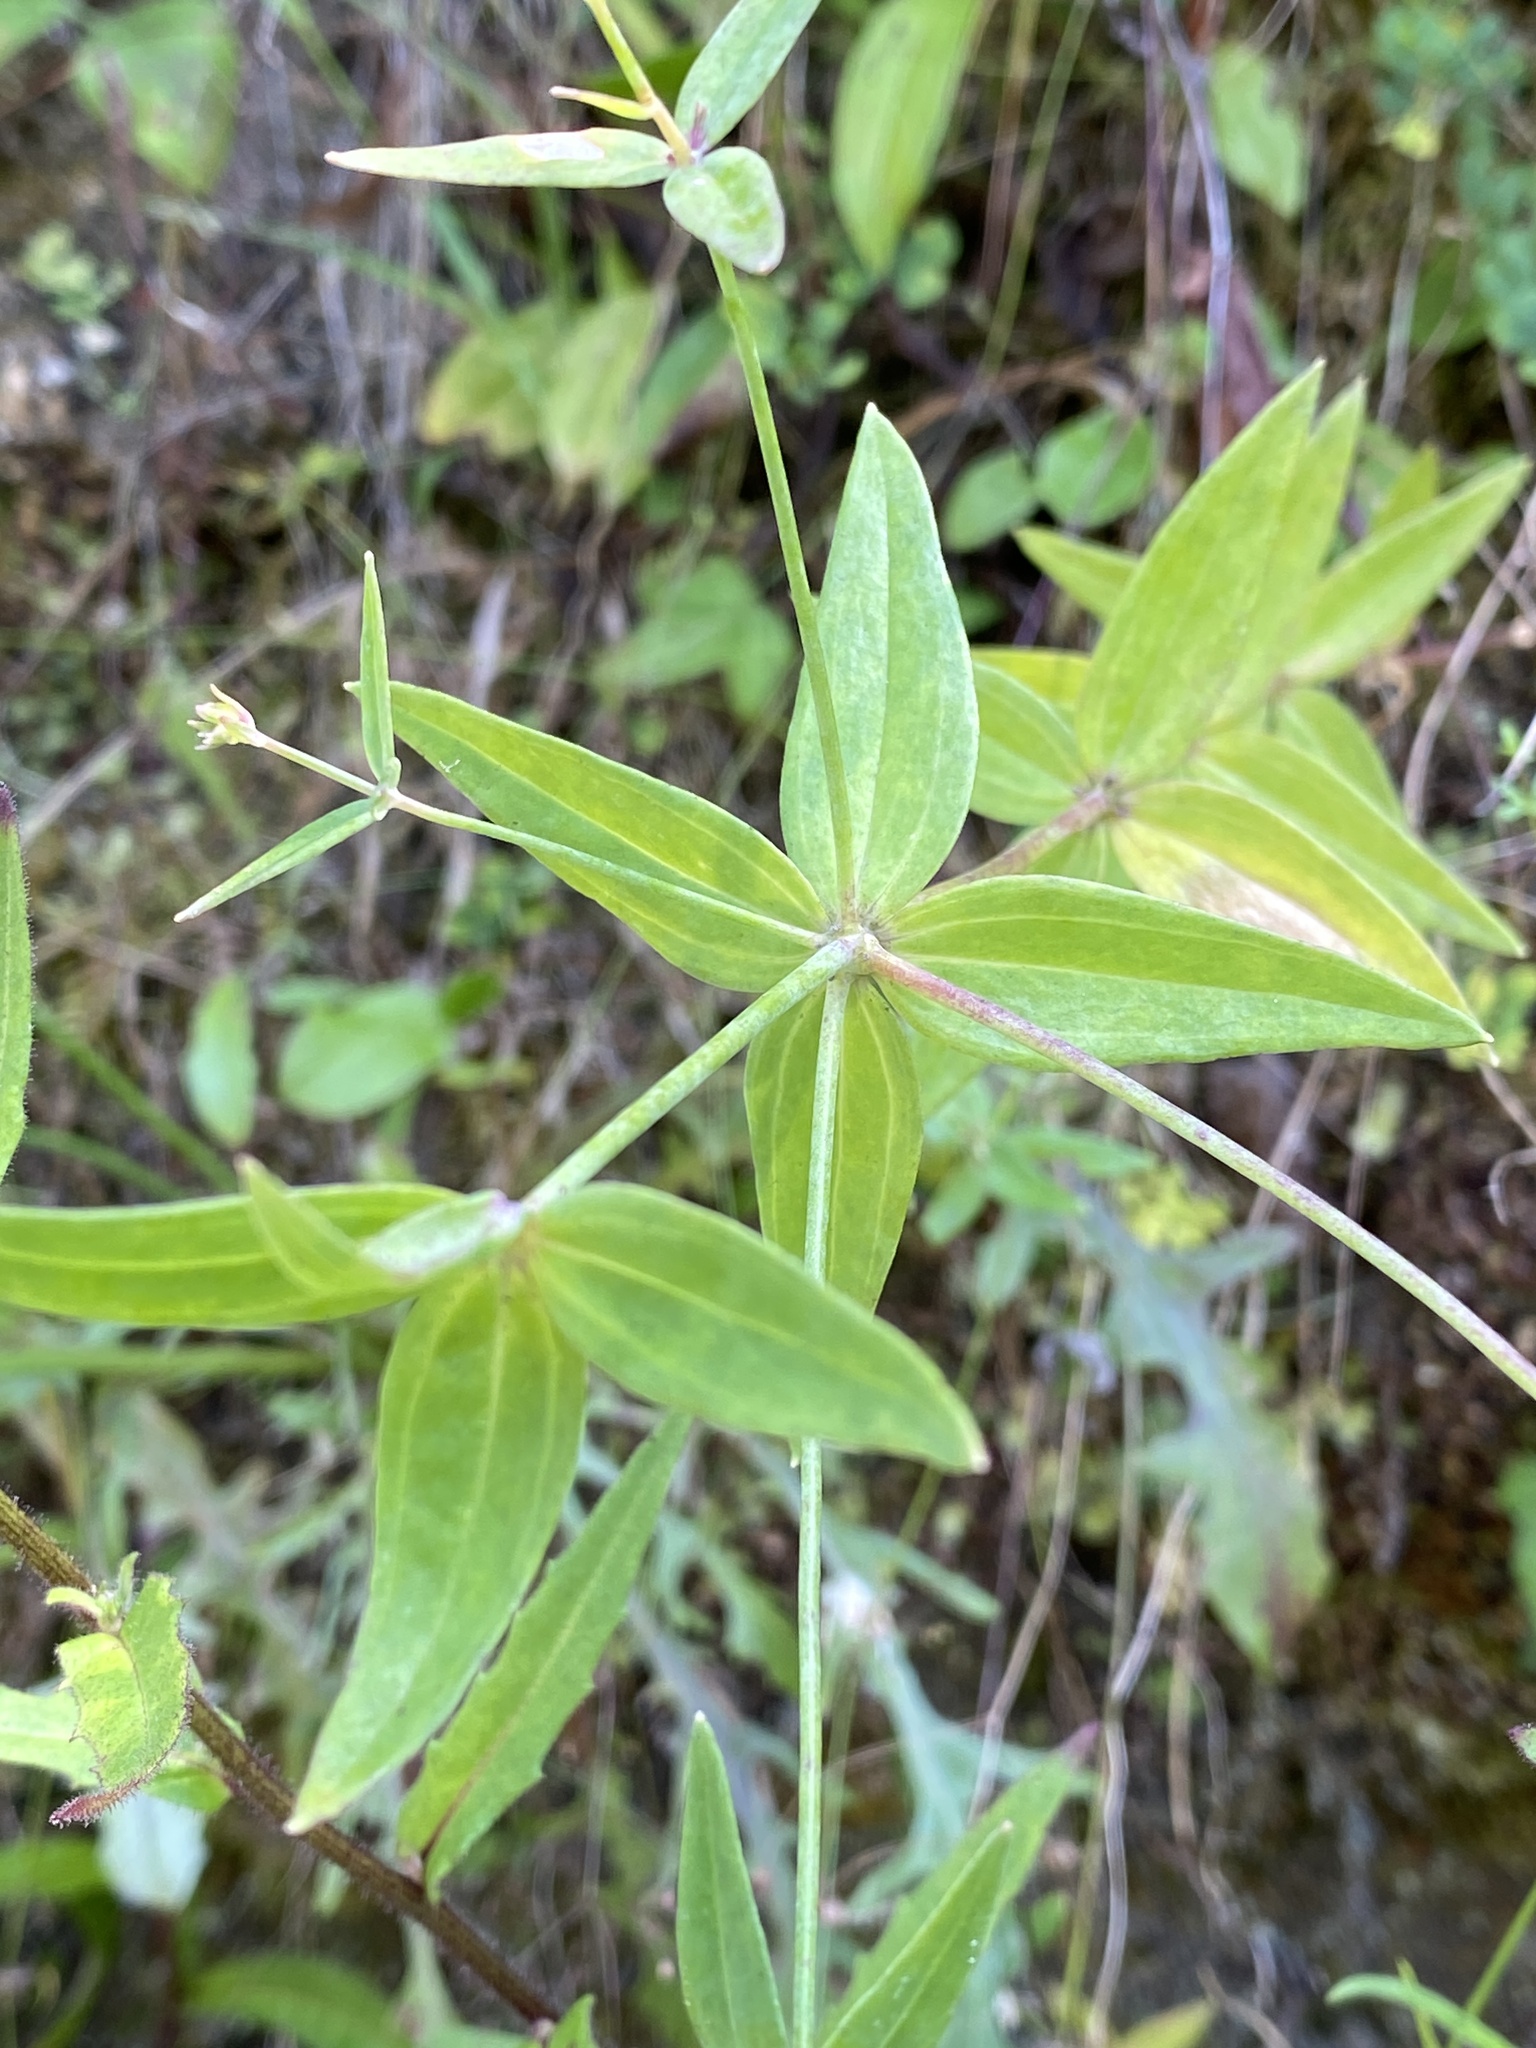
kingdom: Plantae
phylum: Tracheophyta
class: Magnoliopsida
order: Lamiales
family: Plantaginaceae
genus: Linaria
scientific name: Linaria triornithophora
